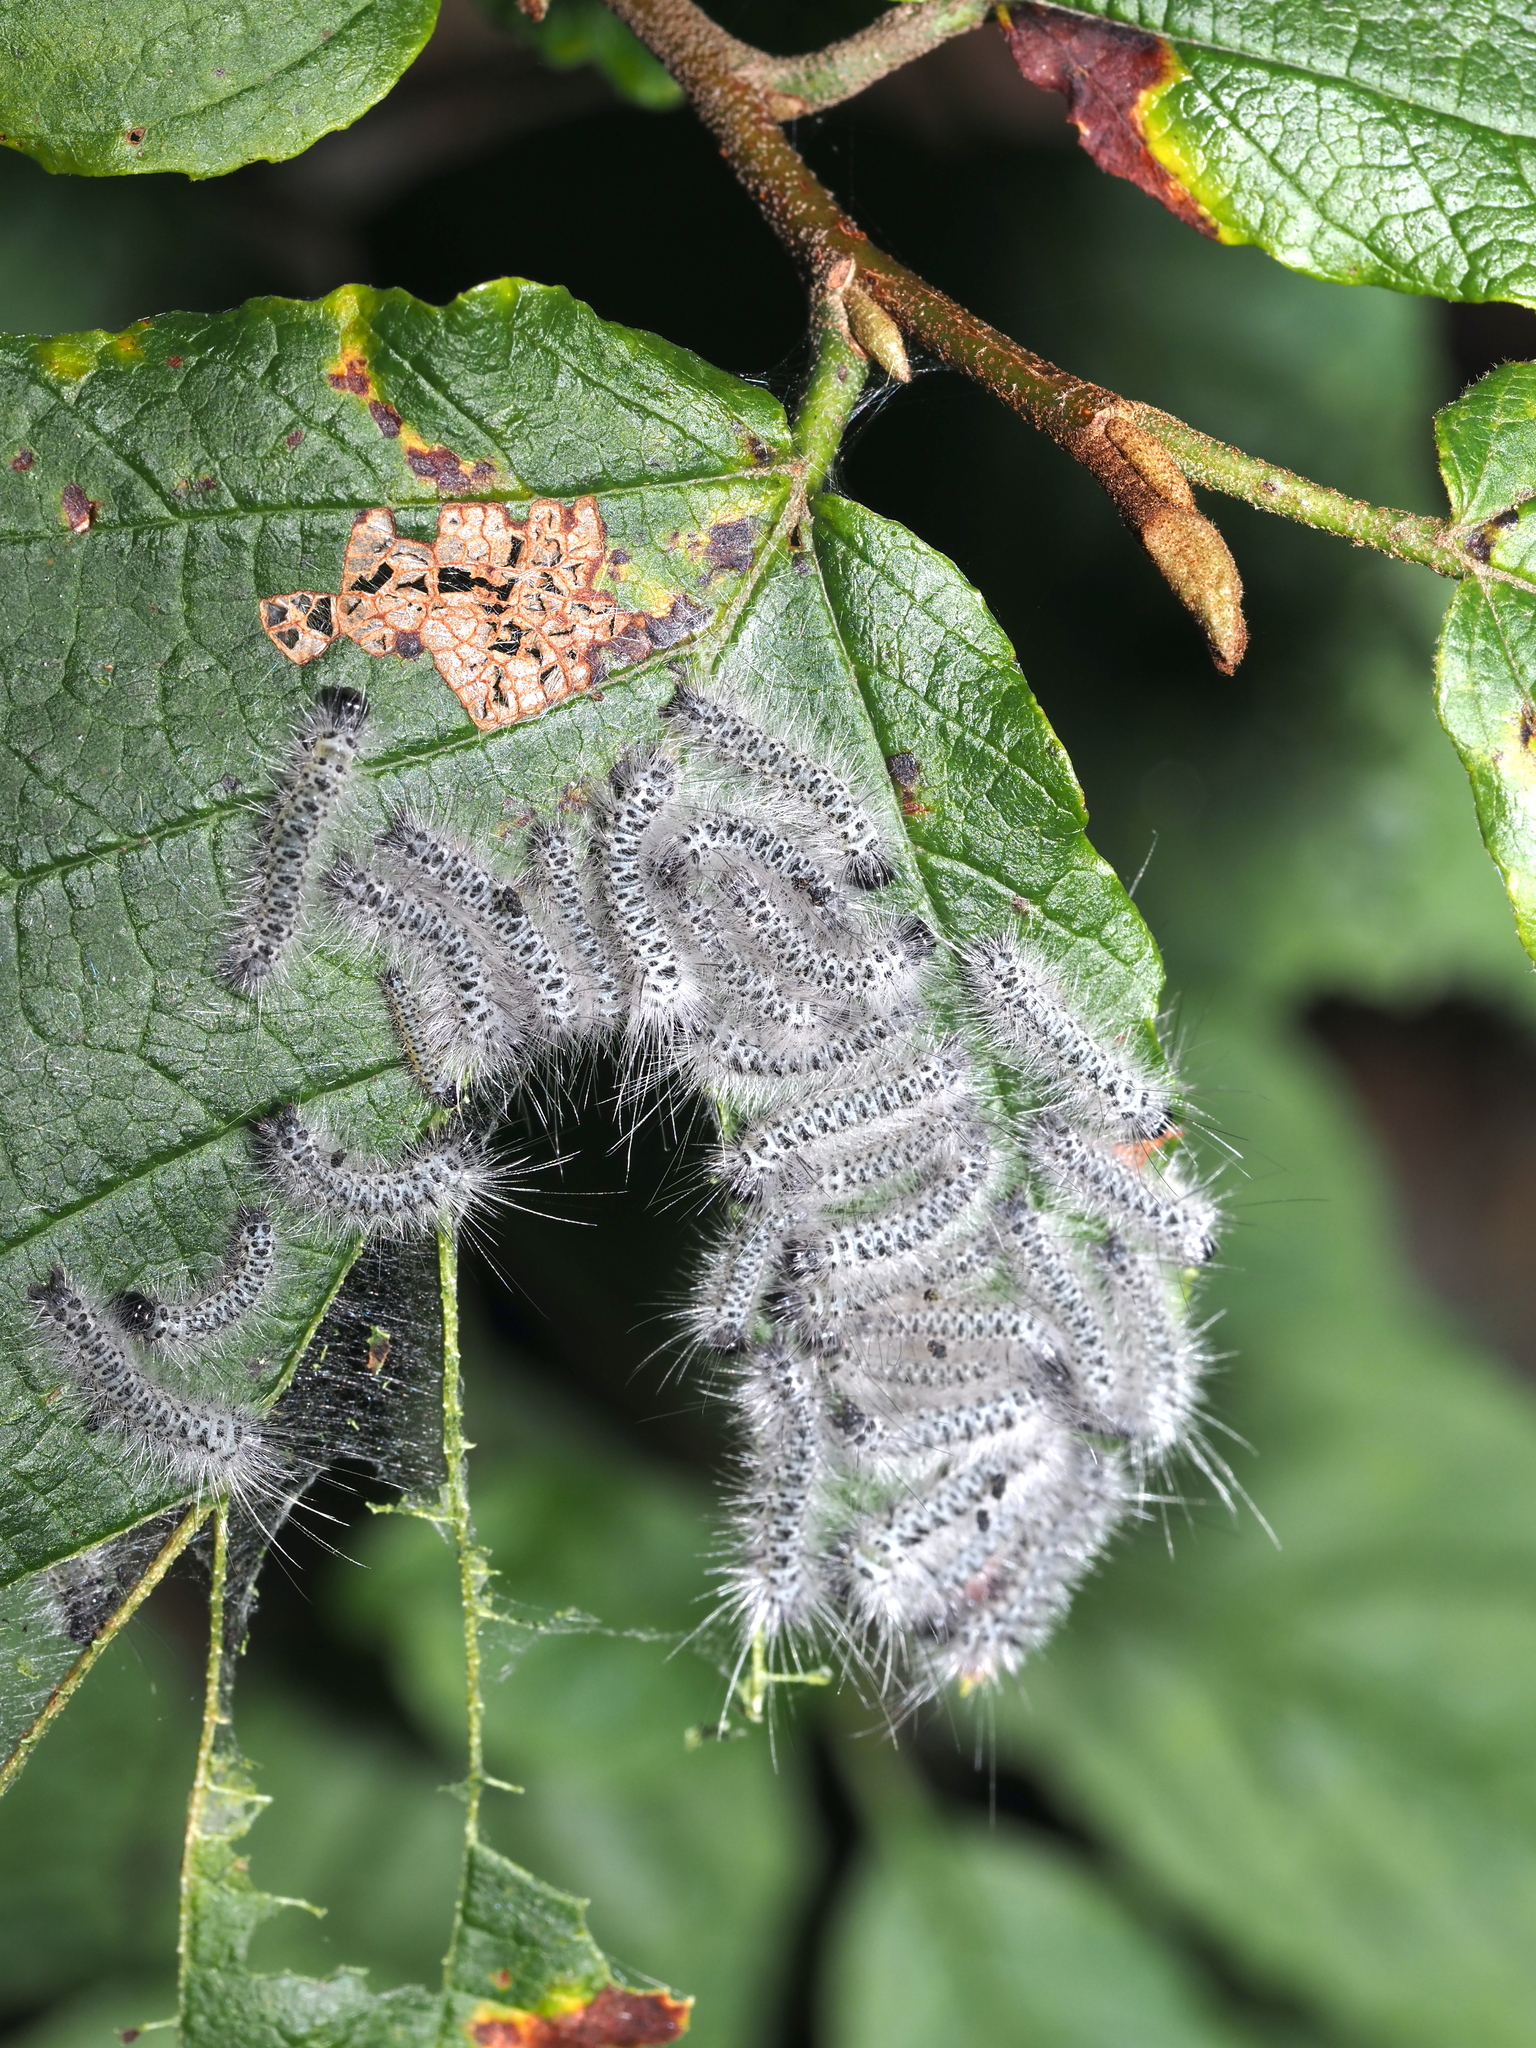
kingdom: Animalia
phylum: Arthropoda
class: Insecta
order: Lepidoptera
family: Erebidae
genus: Lophocampa
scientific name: Lophocampa caryae
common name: Hickory tussock moth
